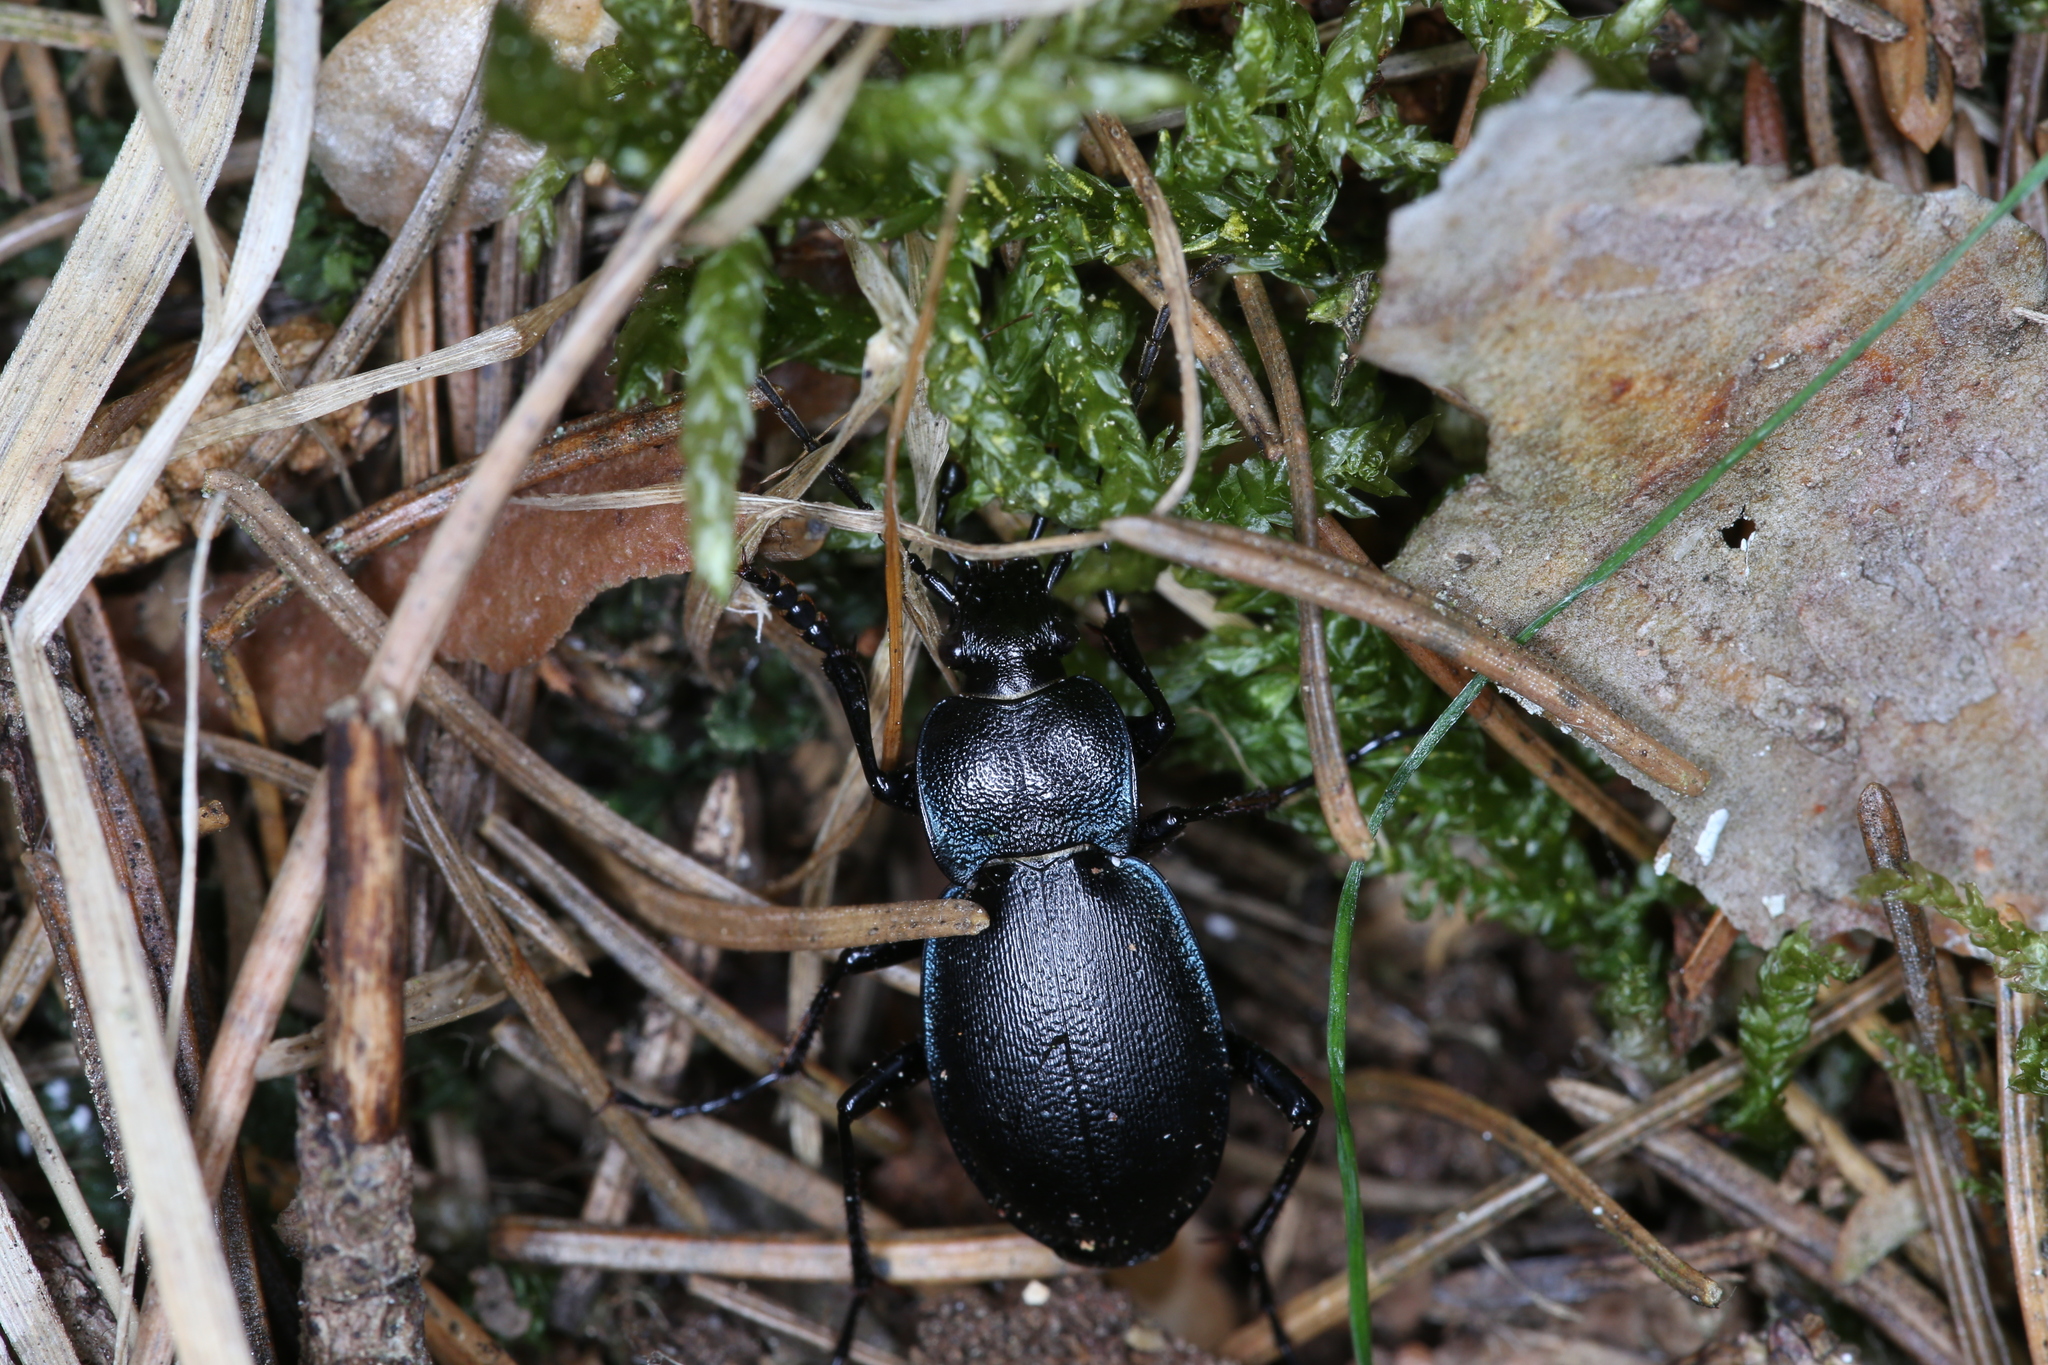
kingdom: Animalia
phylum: Arthropoda
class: Insecta
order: Coleoptera
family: Carabidae
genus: Carabus
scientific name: Carabus convexus
